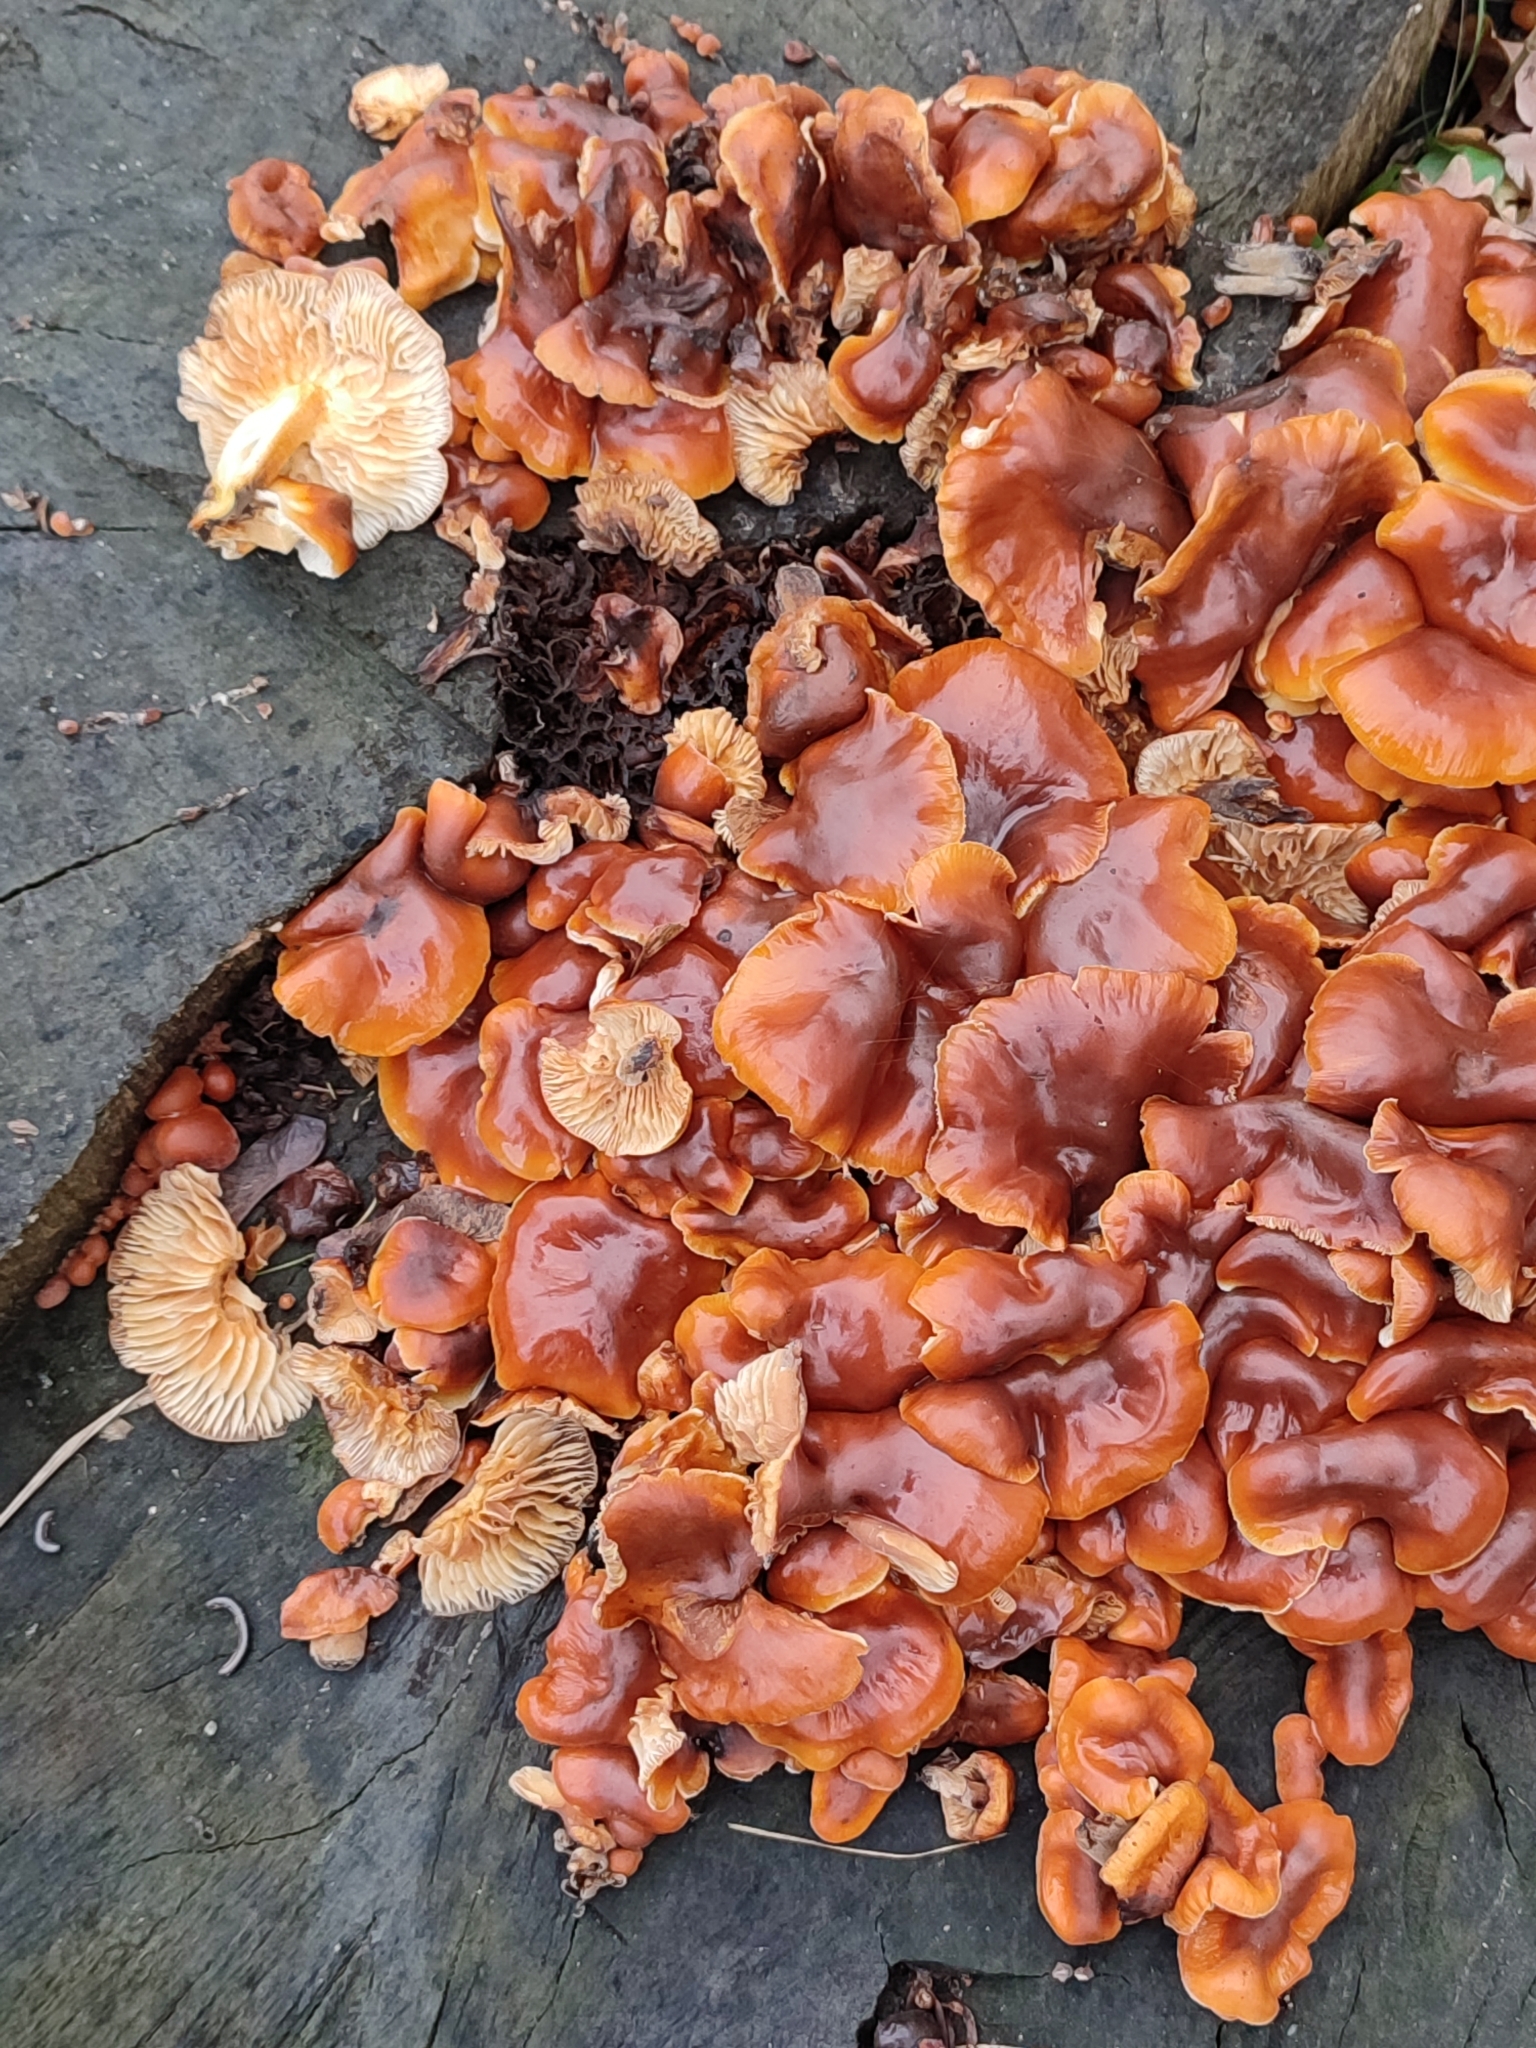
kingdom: Fungi
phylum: Basidiomycota
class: Agaricomycetes
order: Agaricales
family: Physalacriaceae
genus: Flammulina
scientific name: Flammulina
